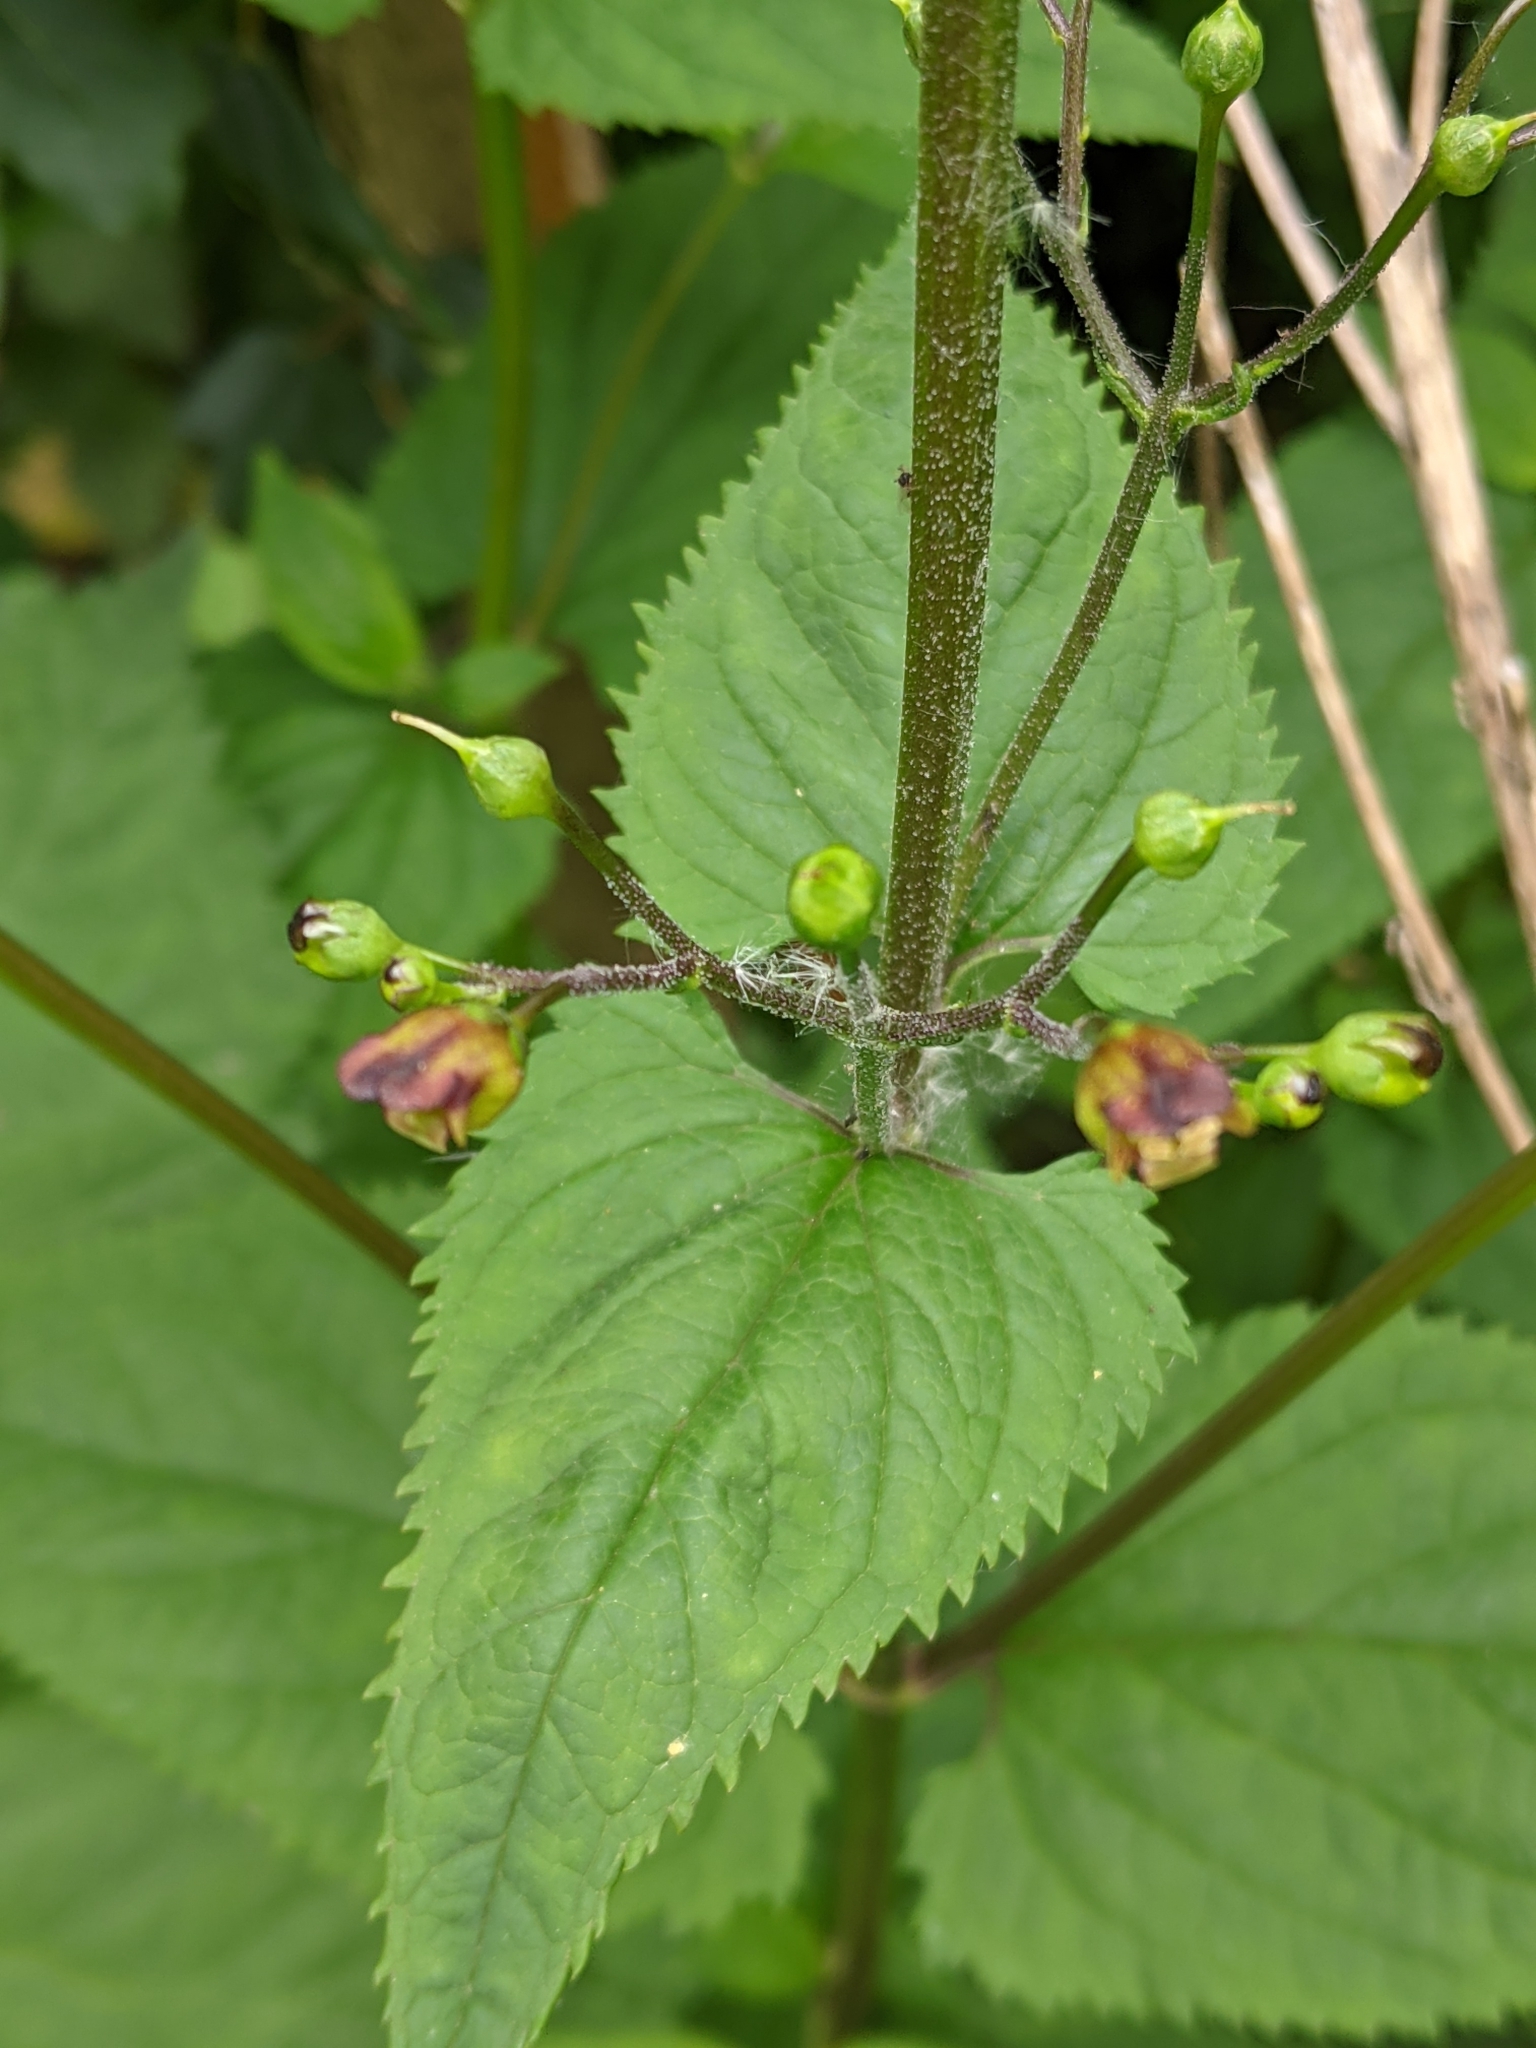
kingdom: Plantae
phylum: Tracheophyta
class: Magnoliopsida
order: Lamiales
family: Scrophulariaceae
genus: Scrophularia
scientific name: Scrophularia nodosa
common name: Common figwort
